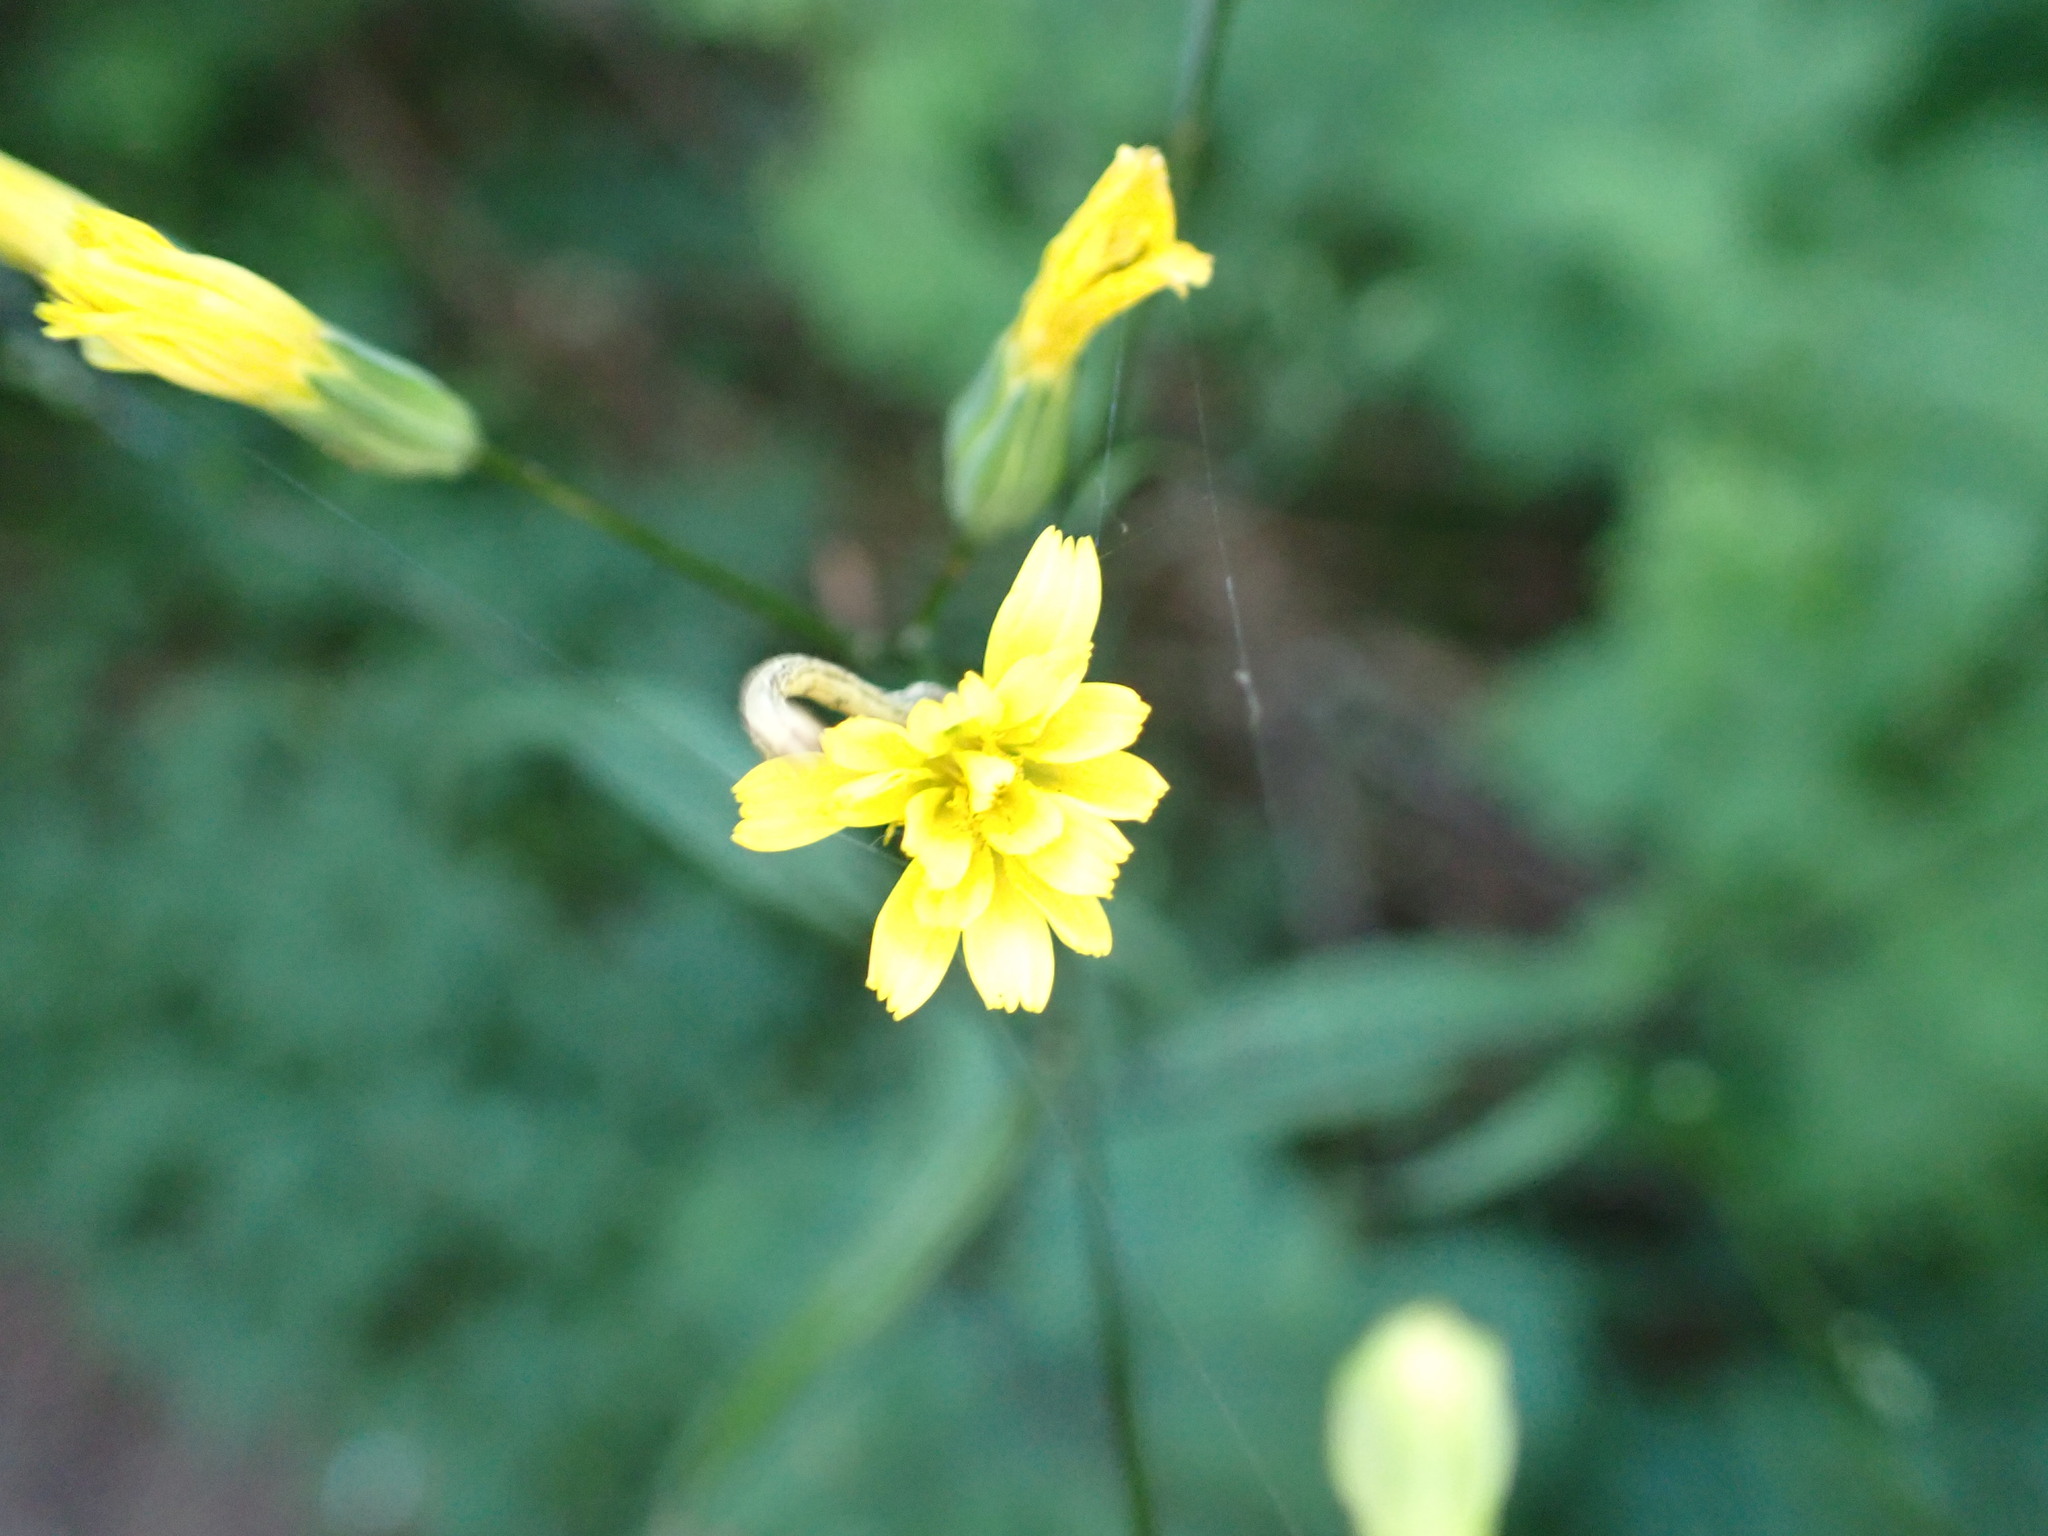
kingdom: Plantae
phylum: Tracheophyta
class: Magnoliopsida
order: Asterales
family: Asteraceae
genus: Lapsana
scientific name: Lapsana communis
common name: Nipplewort
